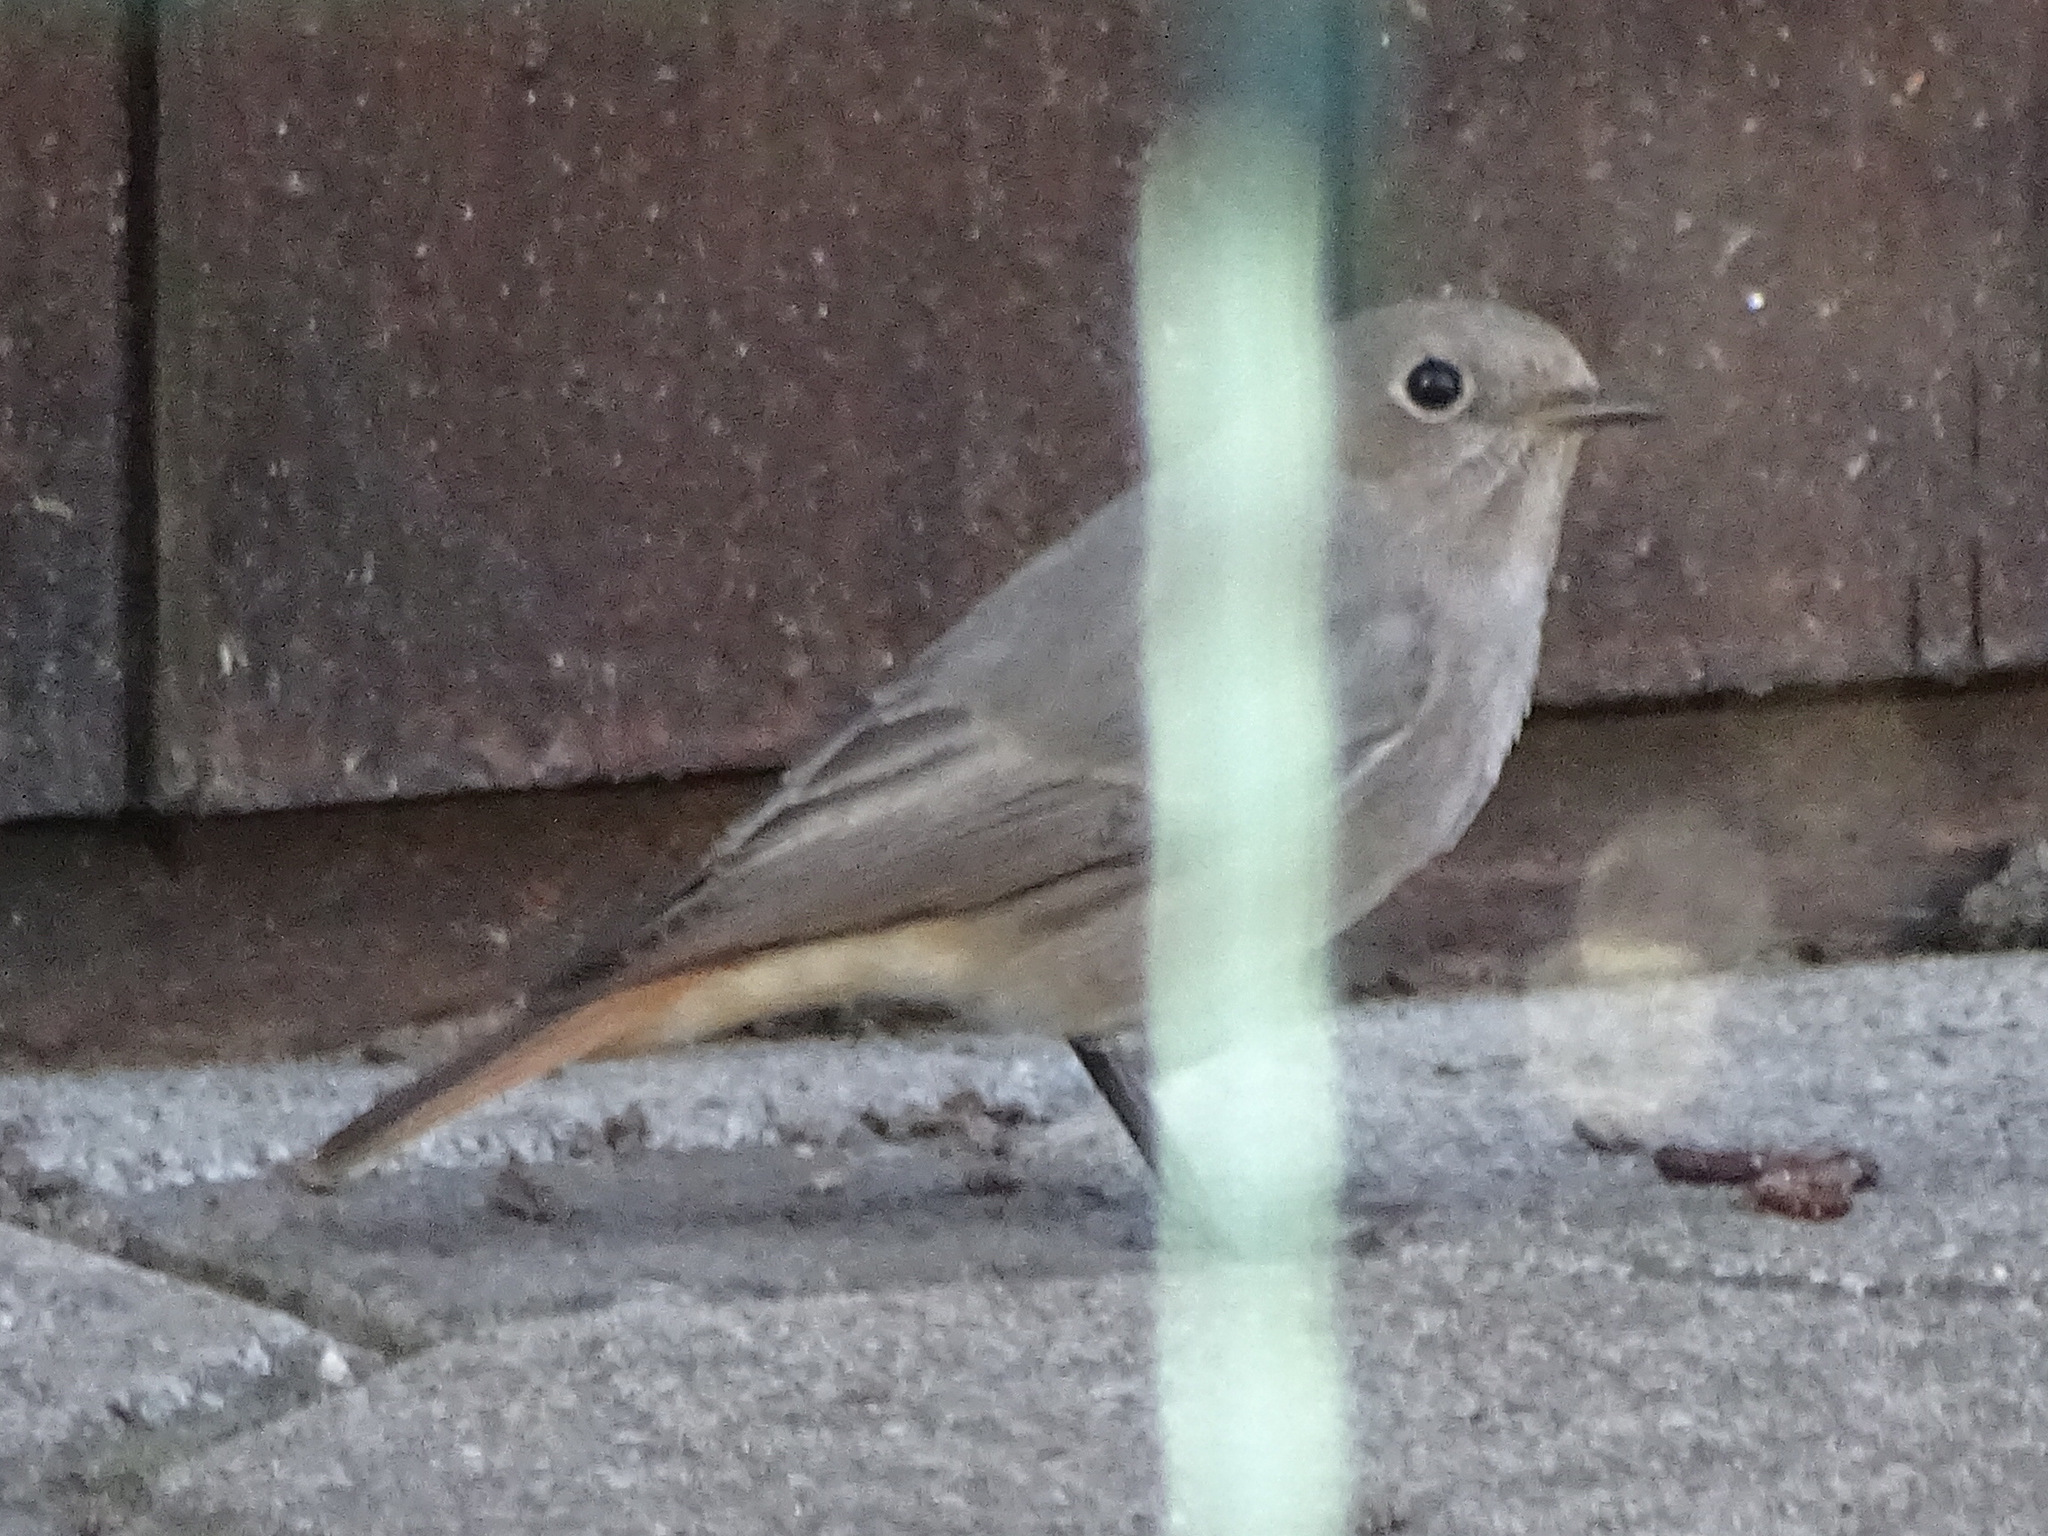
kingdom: Animalia
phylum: Chordata
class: Aves
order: Passeriformes
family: Muscicapidae
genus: Phoenicurus
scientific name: Phoenicurus ochruros
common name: Black redstart
